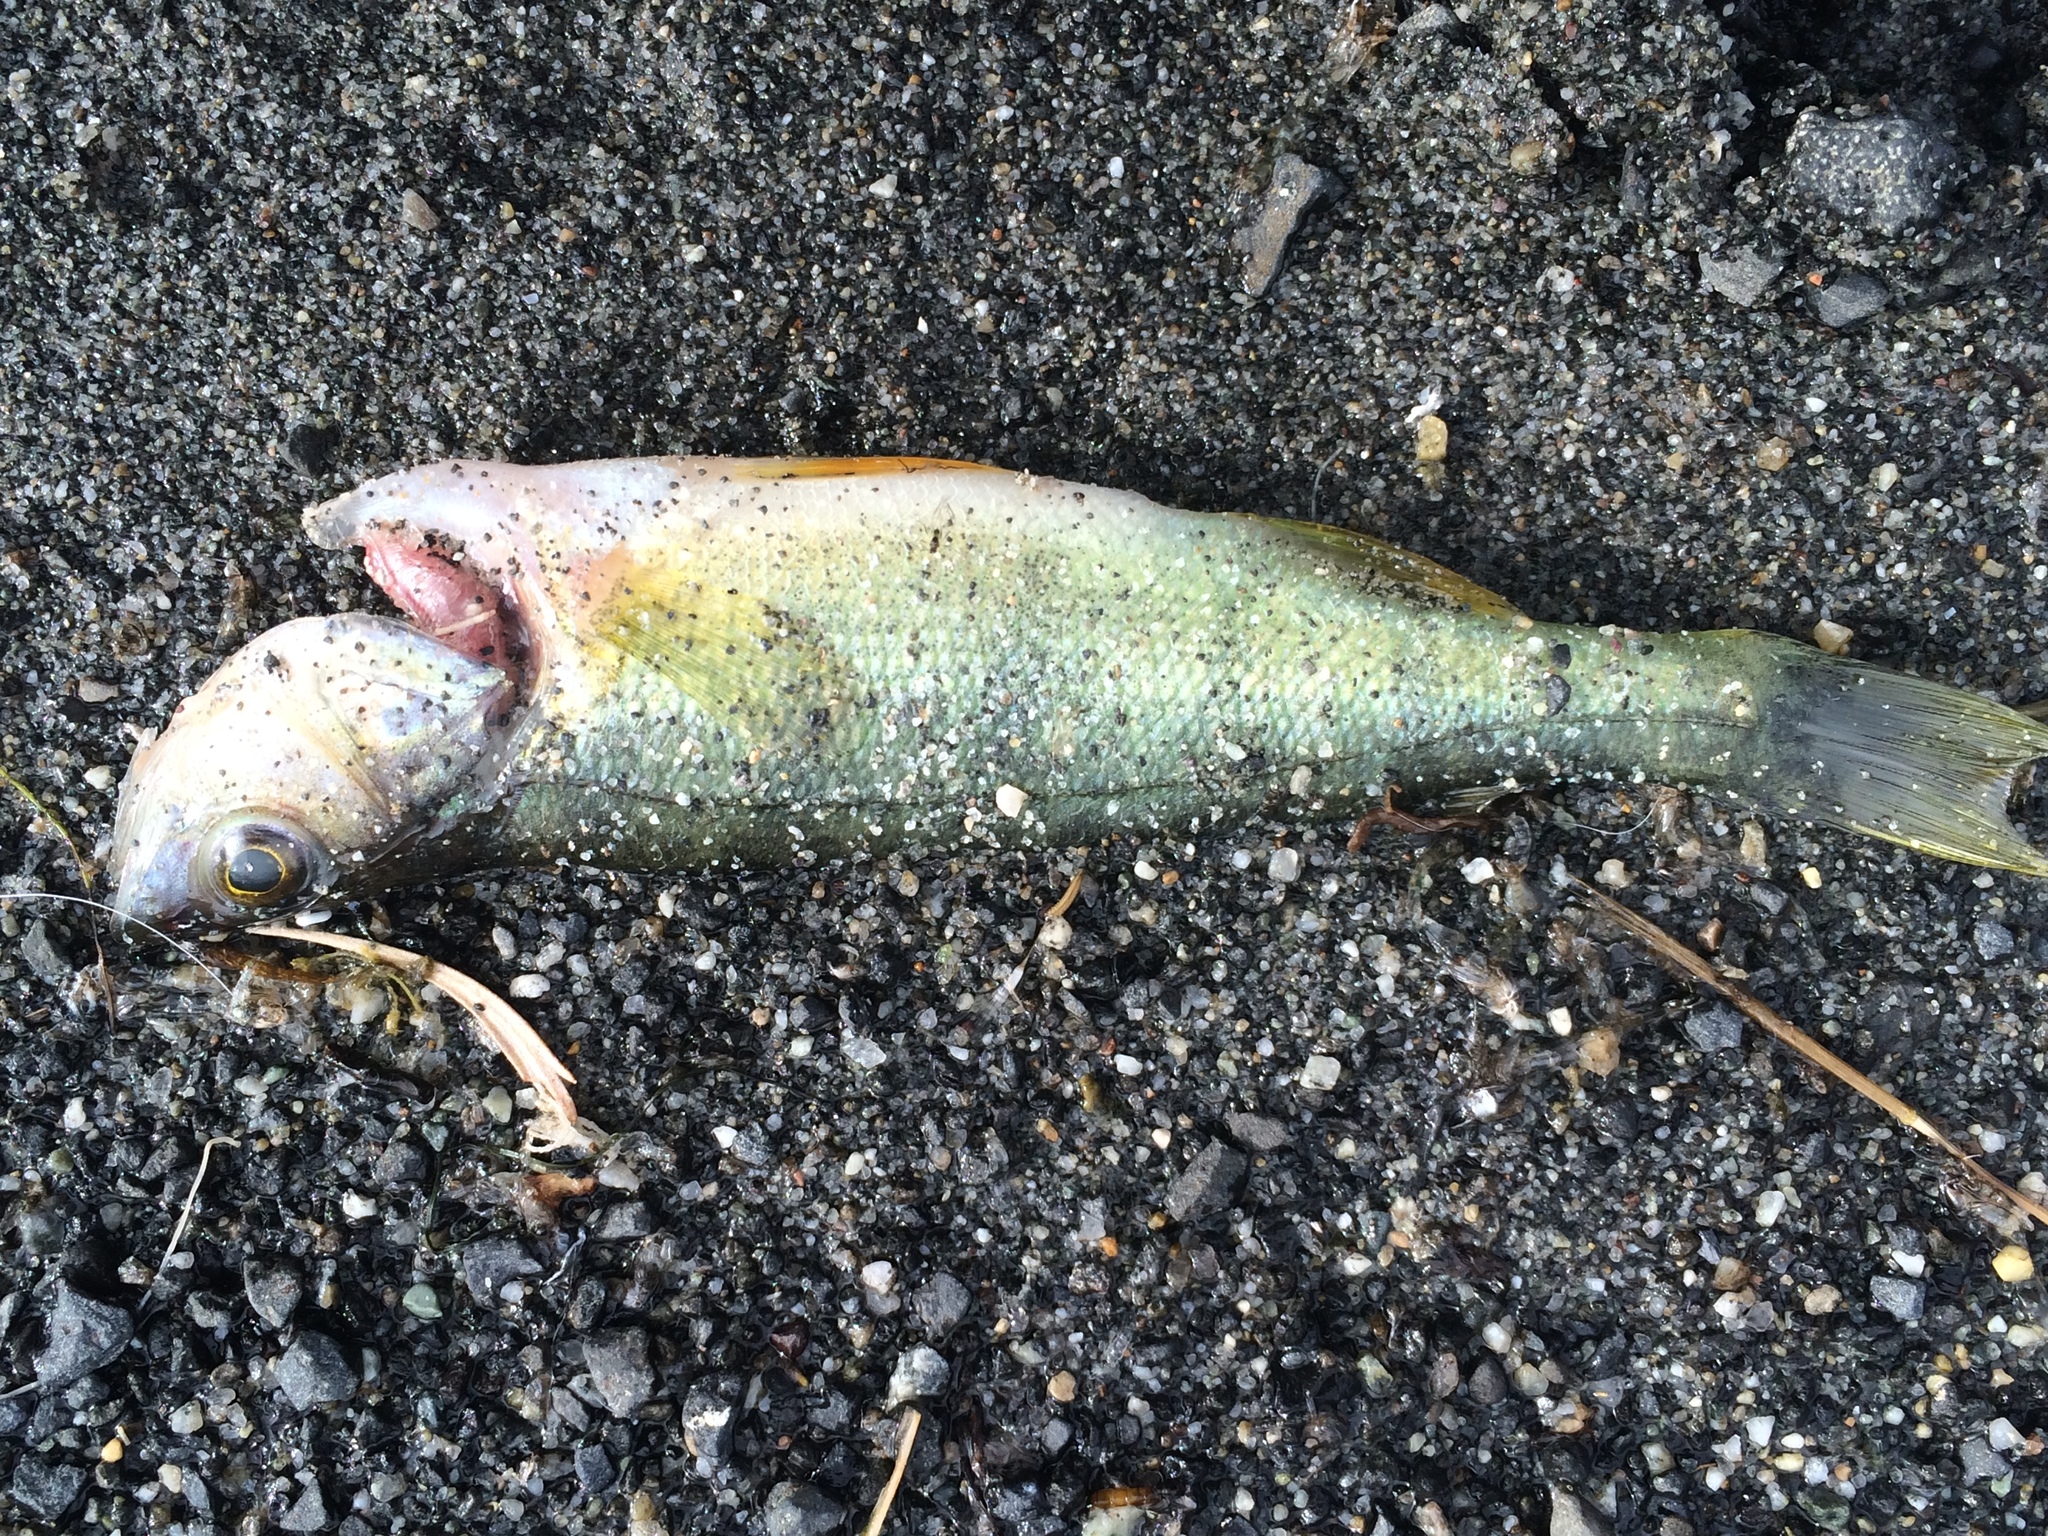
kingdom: Animalia
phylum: Chordata
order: Perciformes
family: Percidae
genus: Perca
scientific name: Perca flavescens
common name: Yellow perch
